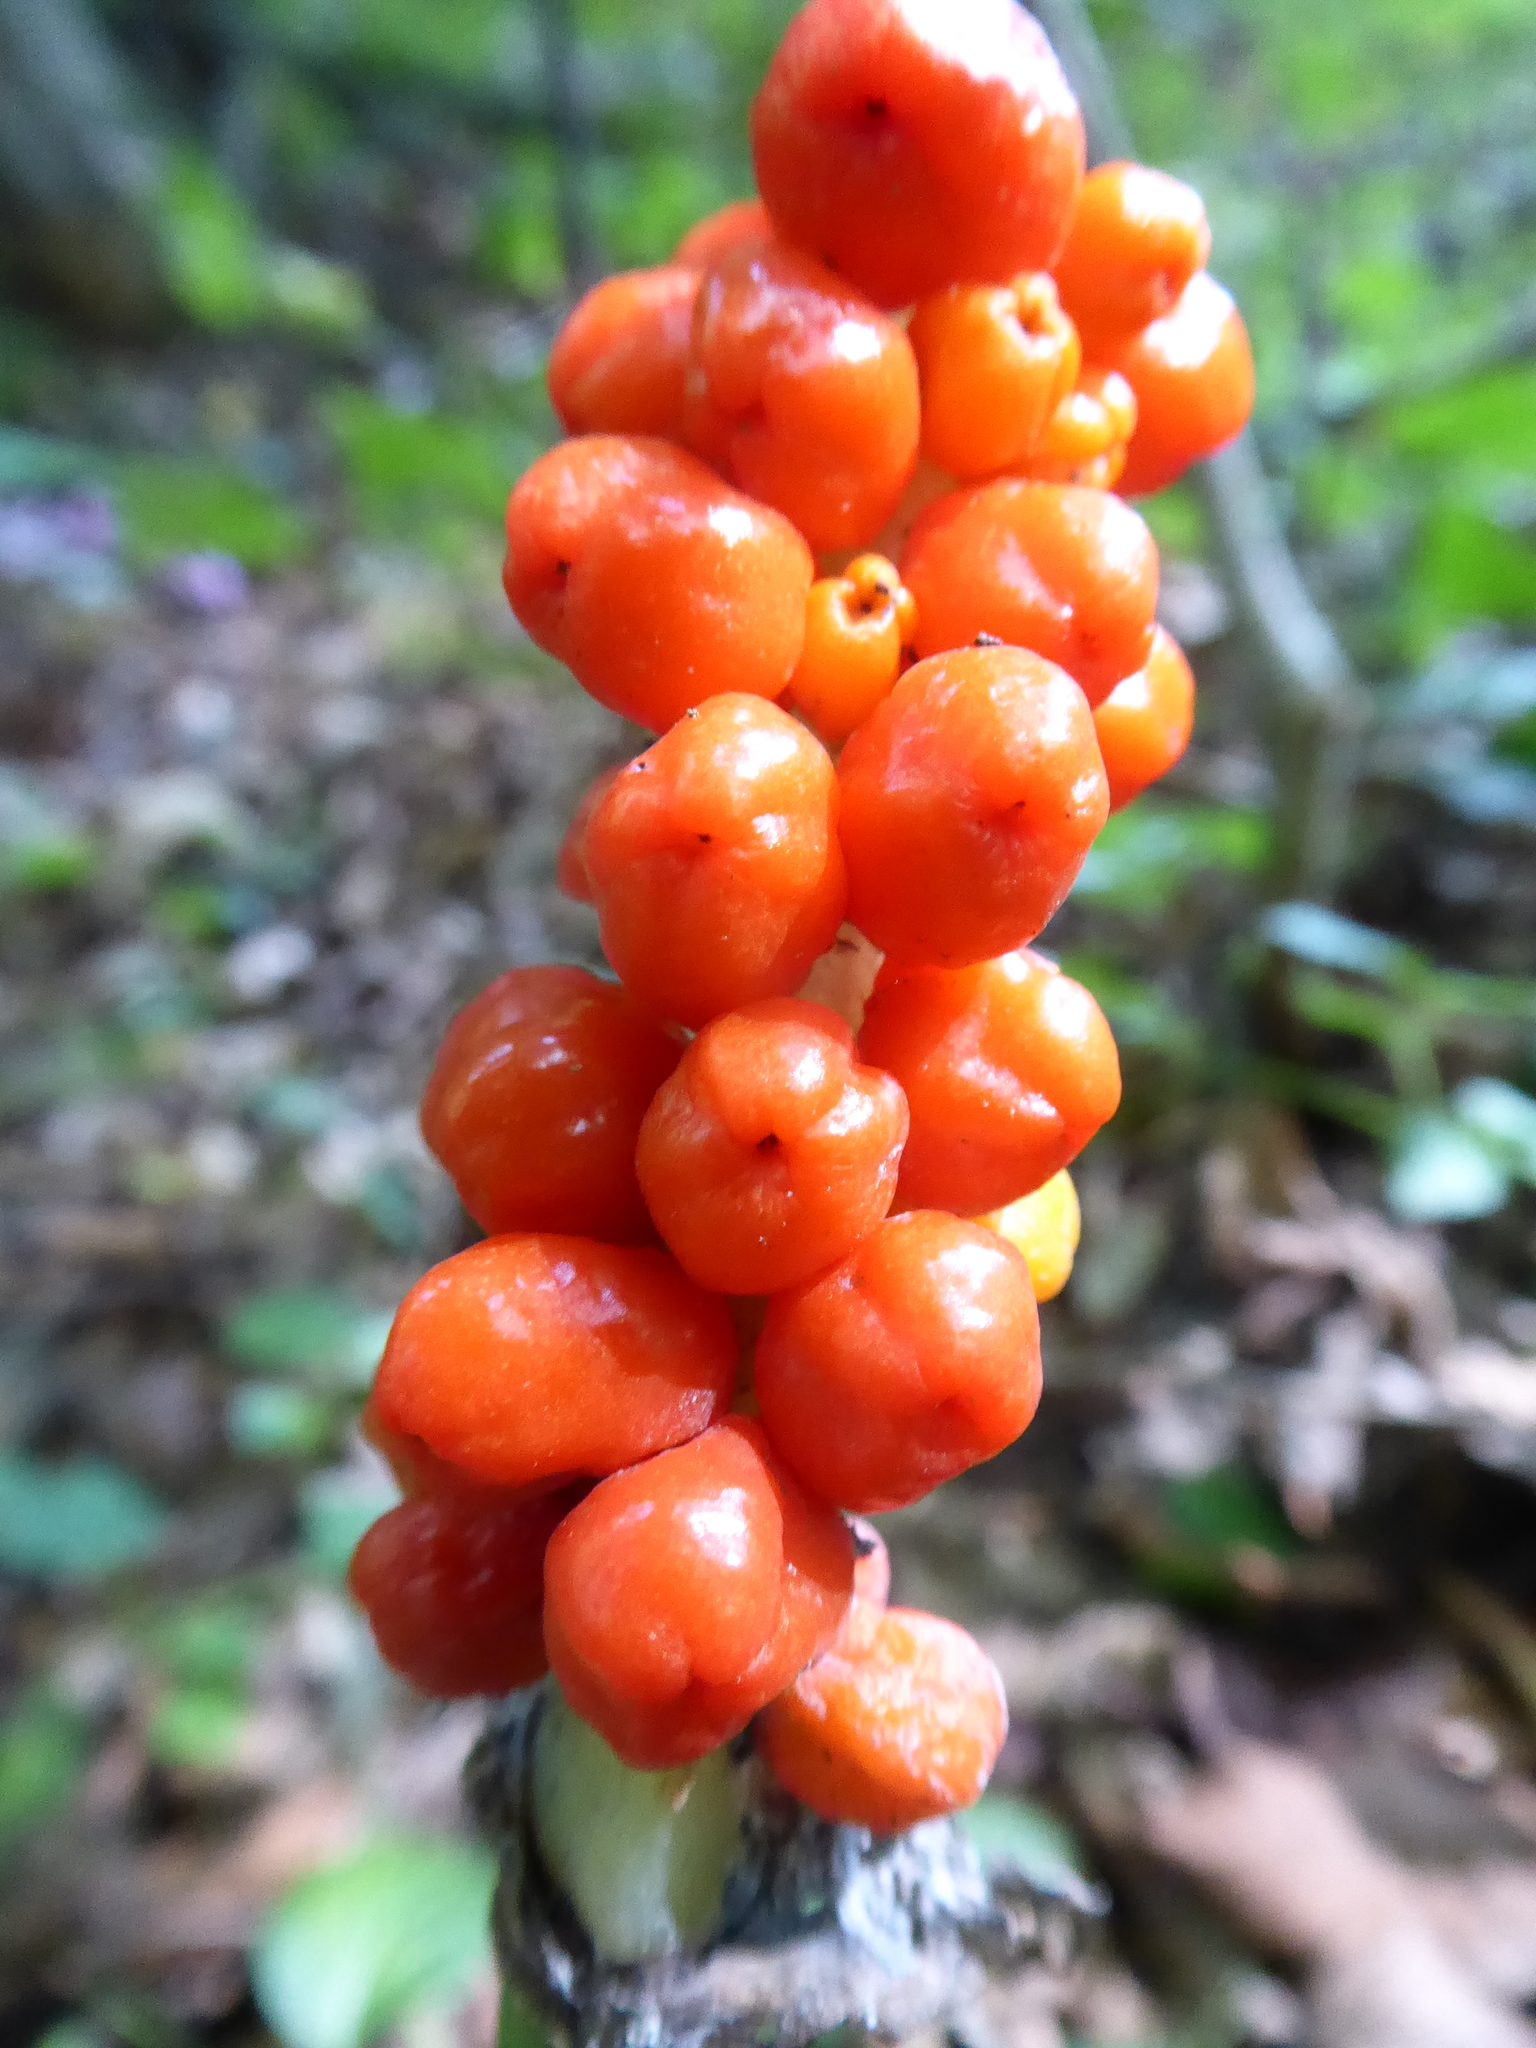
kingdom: Plantae
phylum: Tracheophyta
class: Liliopsida
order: Alismatales
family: Araceae
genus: Arum
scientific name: Arum cylindraceum
